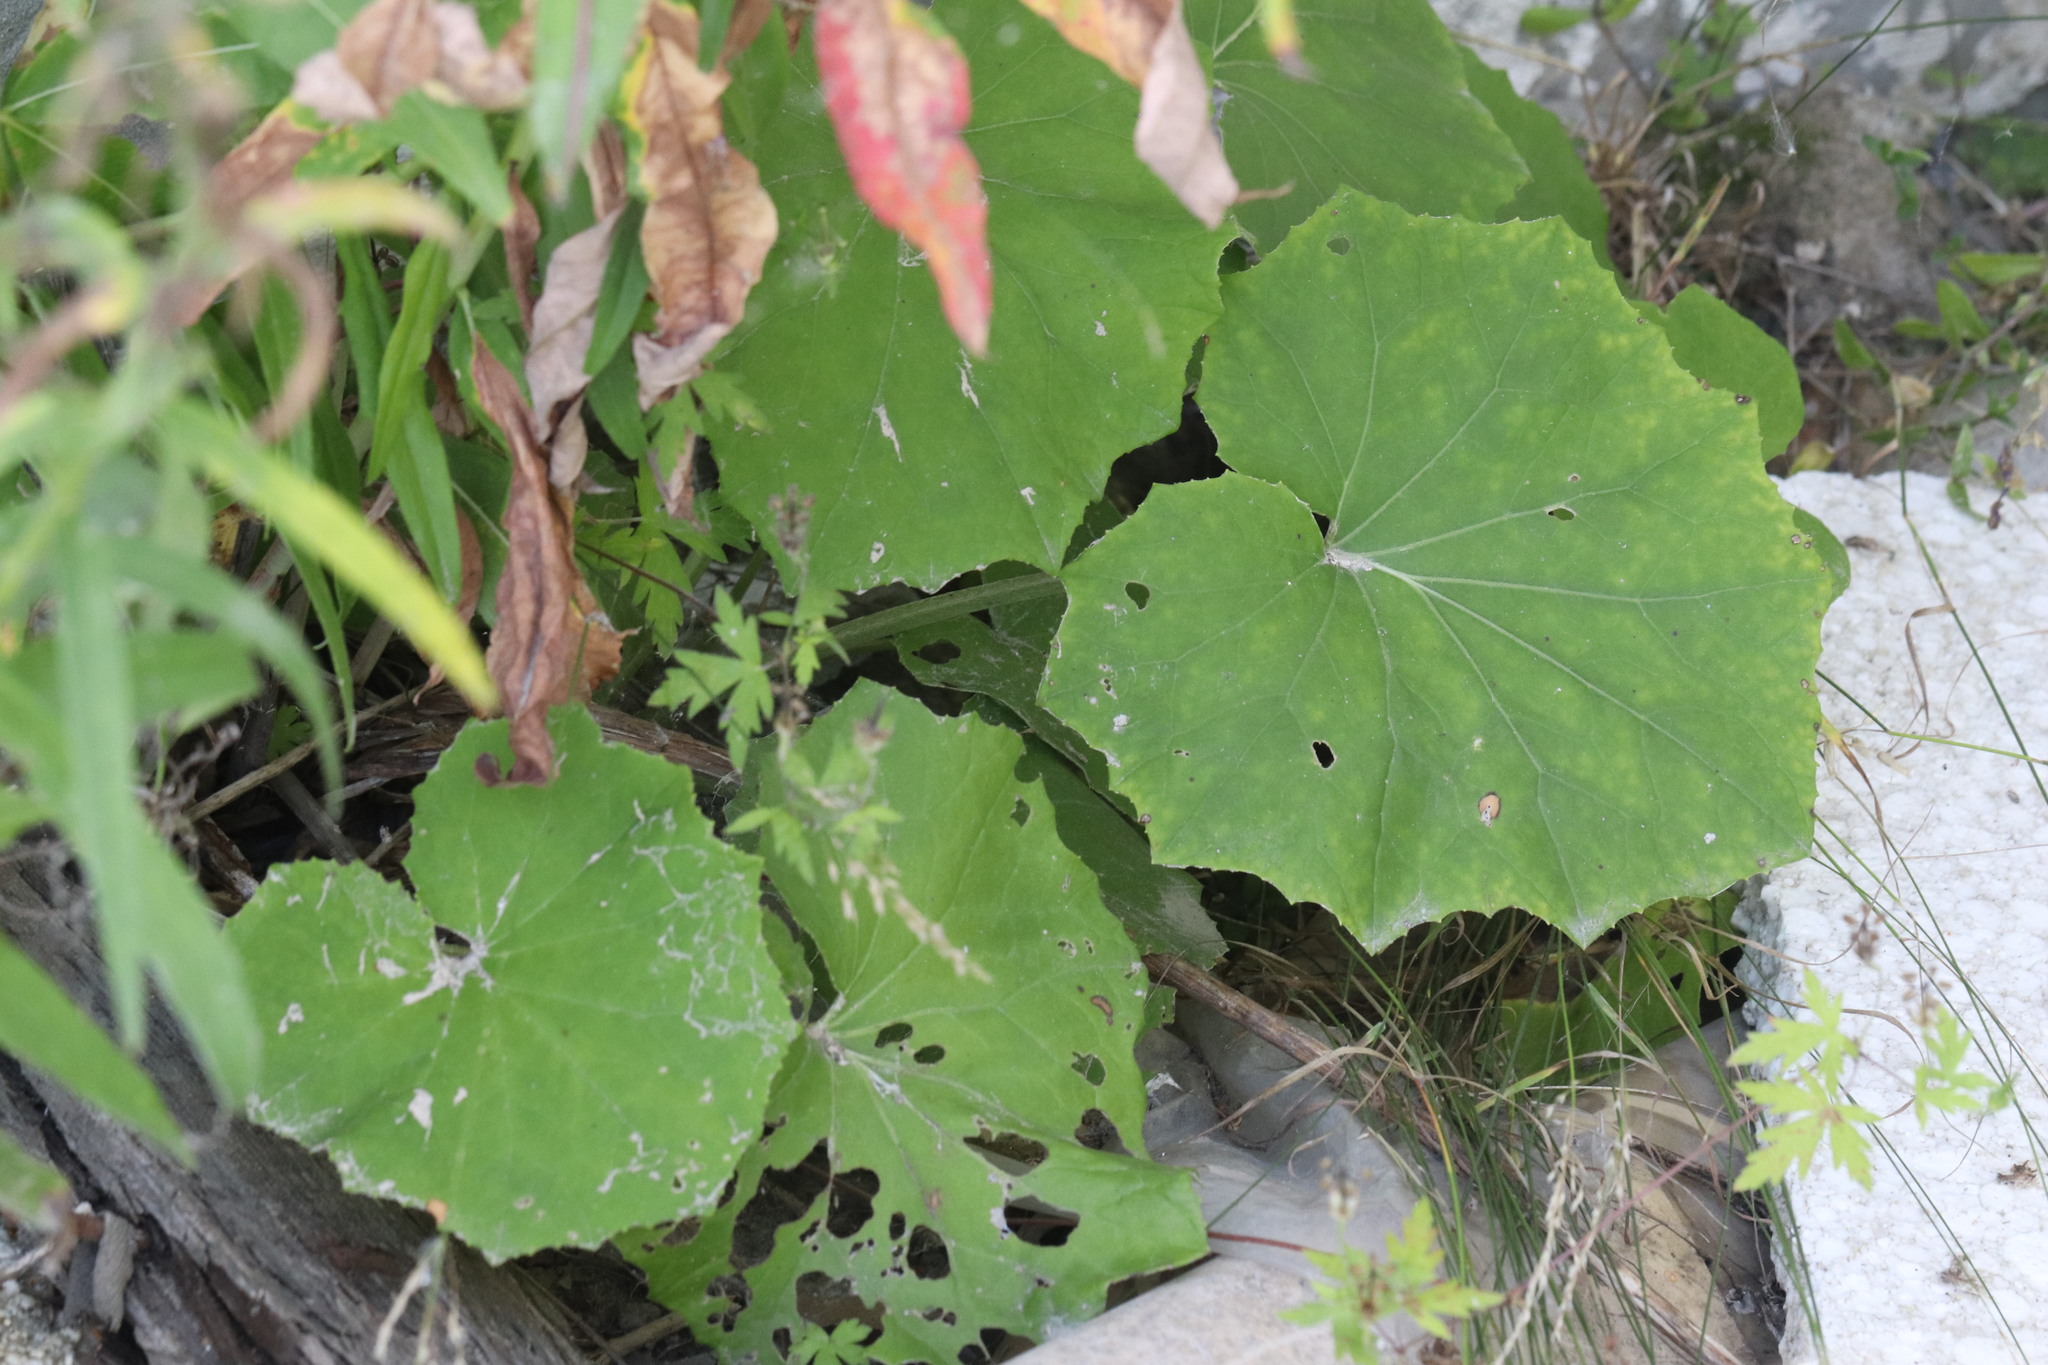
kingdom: Plantae
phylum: Tracheophyta
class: Magnoliopsida
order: Asterales
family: Asteraceae
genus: Tussilago
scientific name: Tussilago farfara
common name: Coltsfoot
